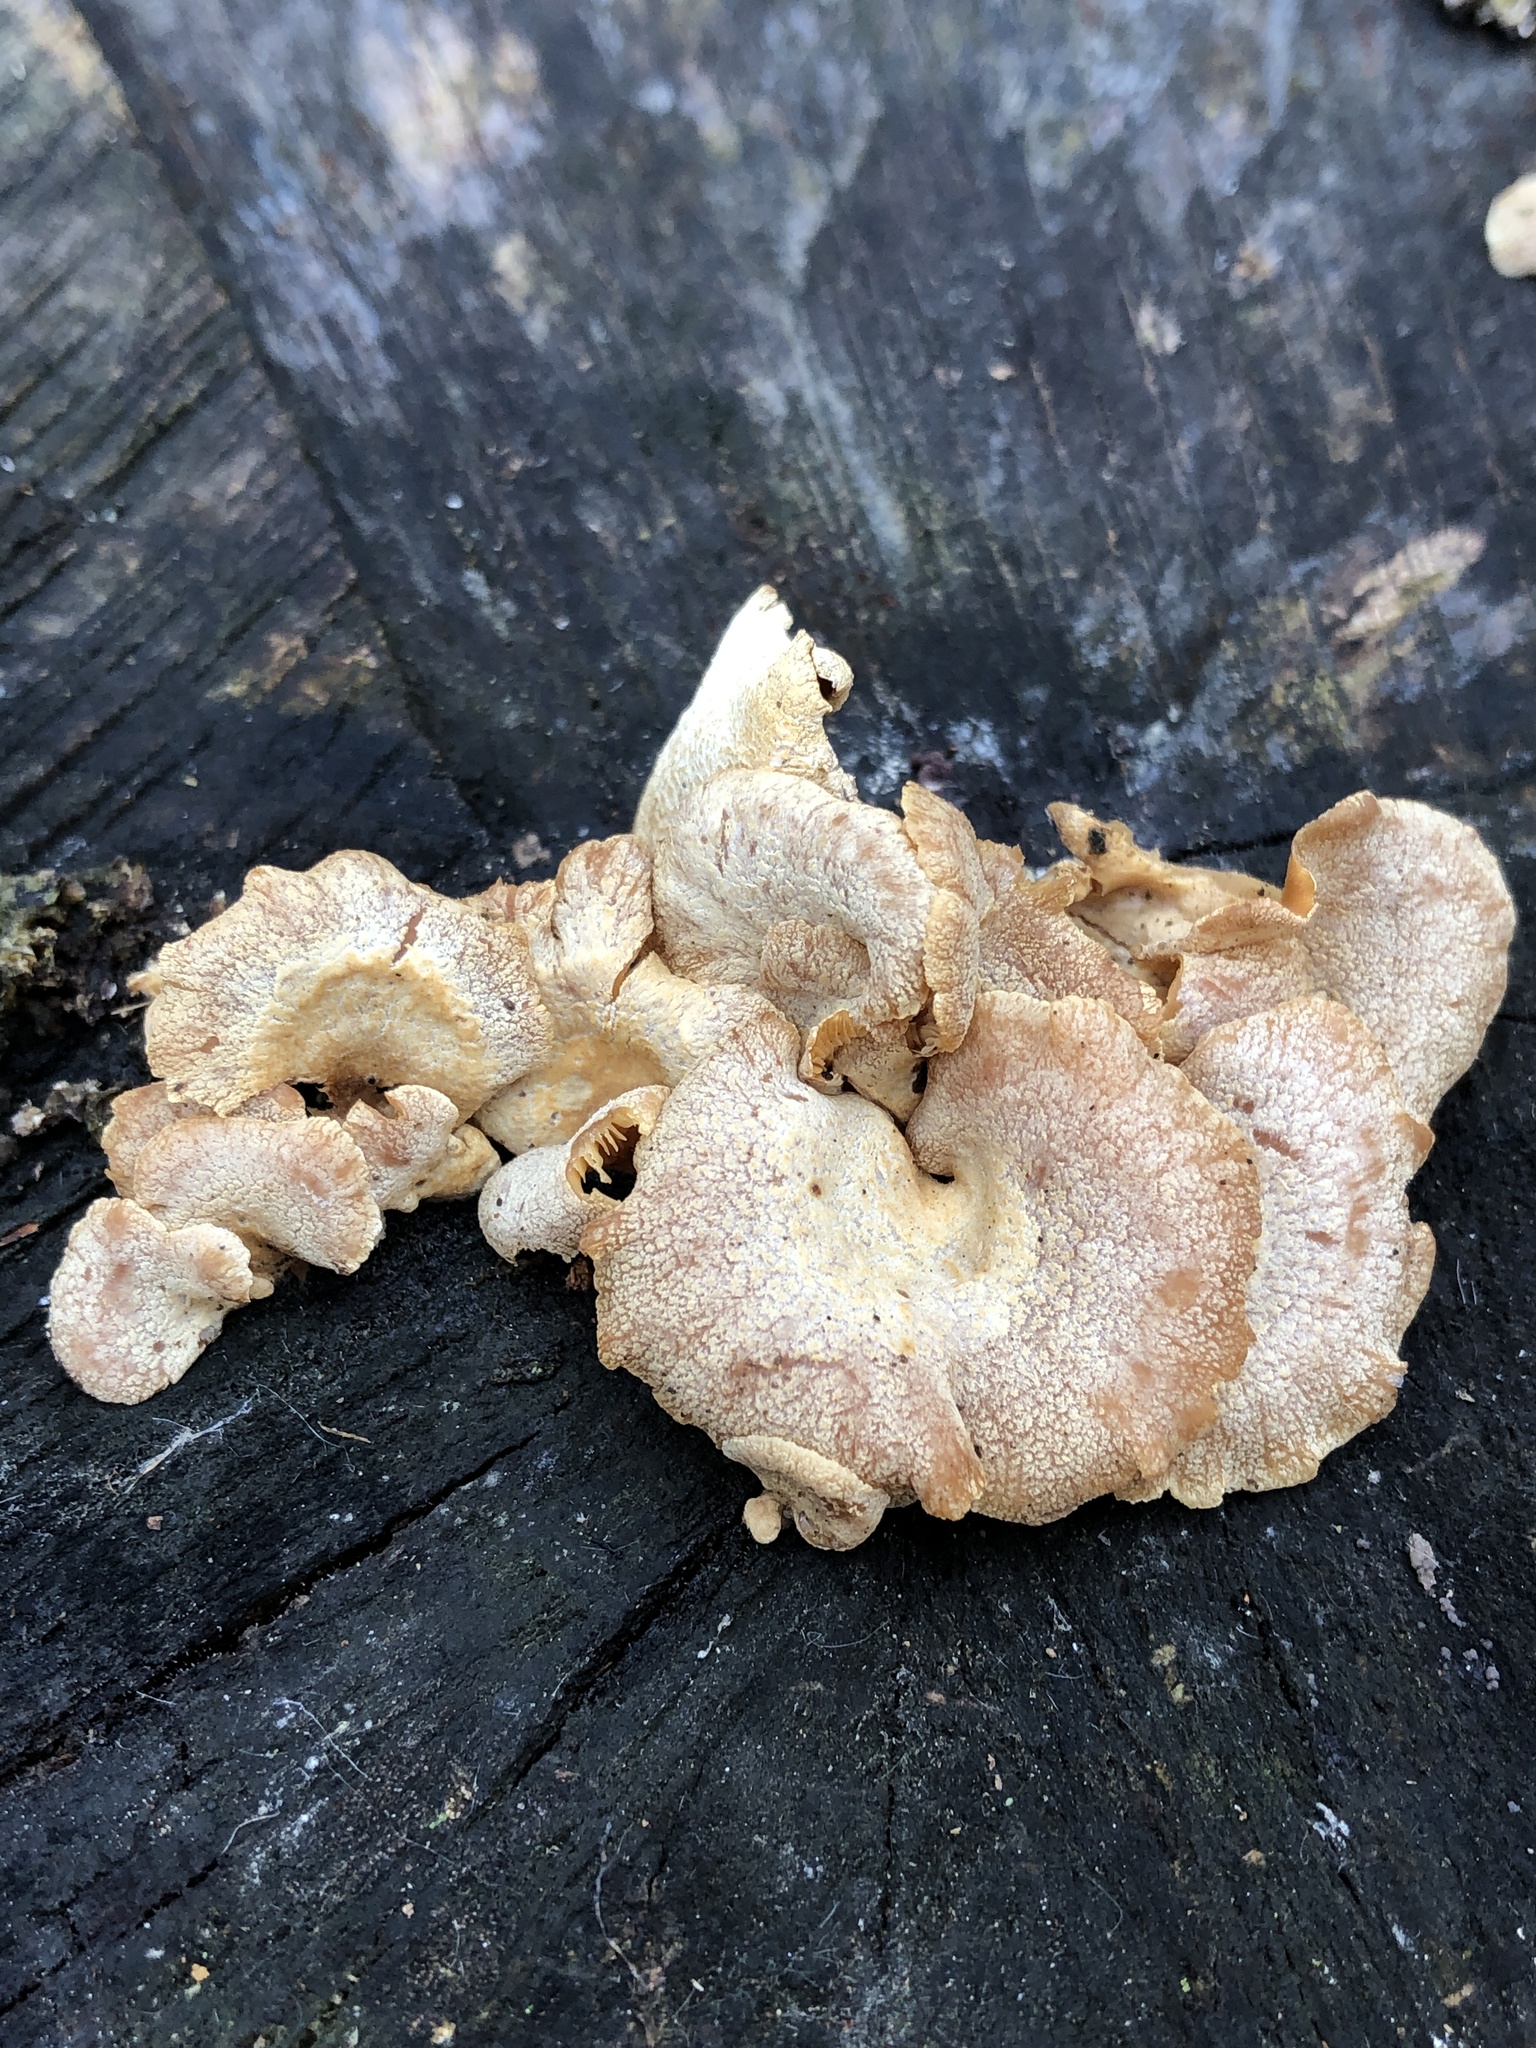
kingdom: Fungi
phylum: Basidiomycota
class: Agaricomycetes
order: Agaricales
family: Mycenaceae
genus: Panellus
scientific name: Panellus stipticus
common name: Bitter oysterling
